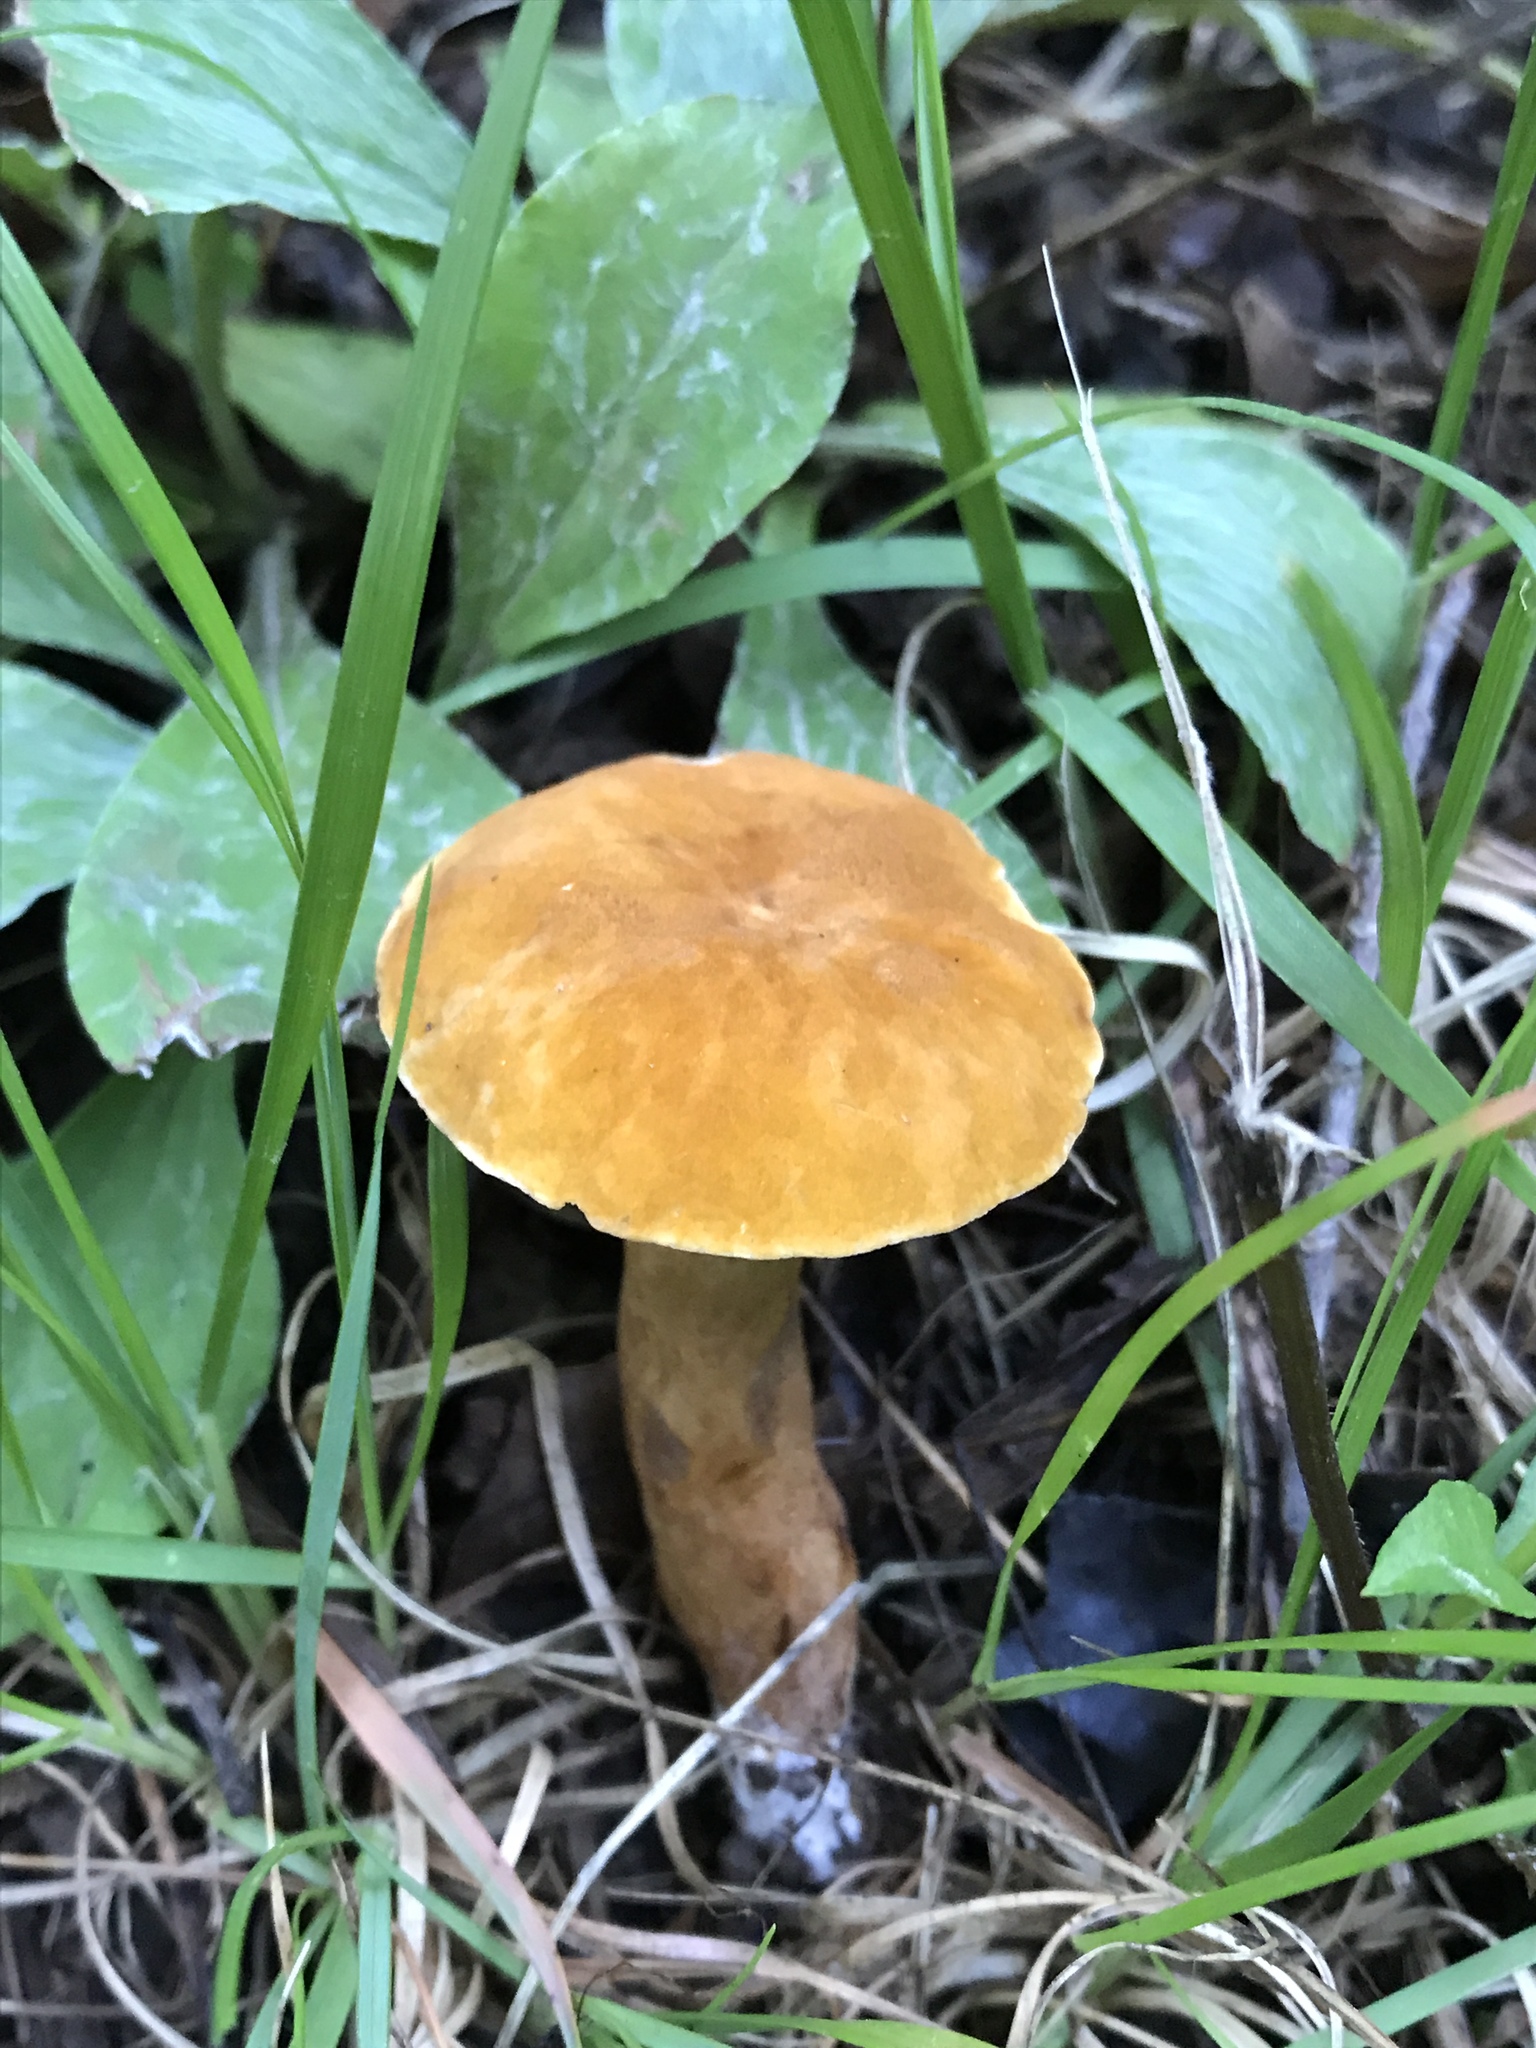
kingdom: Fungi
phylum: Basidiomycota
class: Agaricomycetes
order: Boletales
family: Gyroporaceae
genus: Gyroporus
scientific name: Gyroporus castaneus
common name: Chestnut bolete
